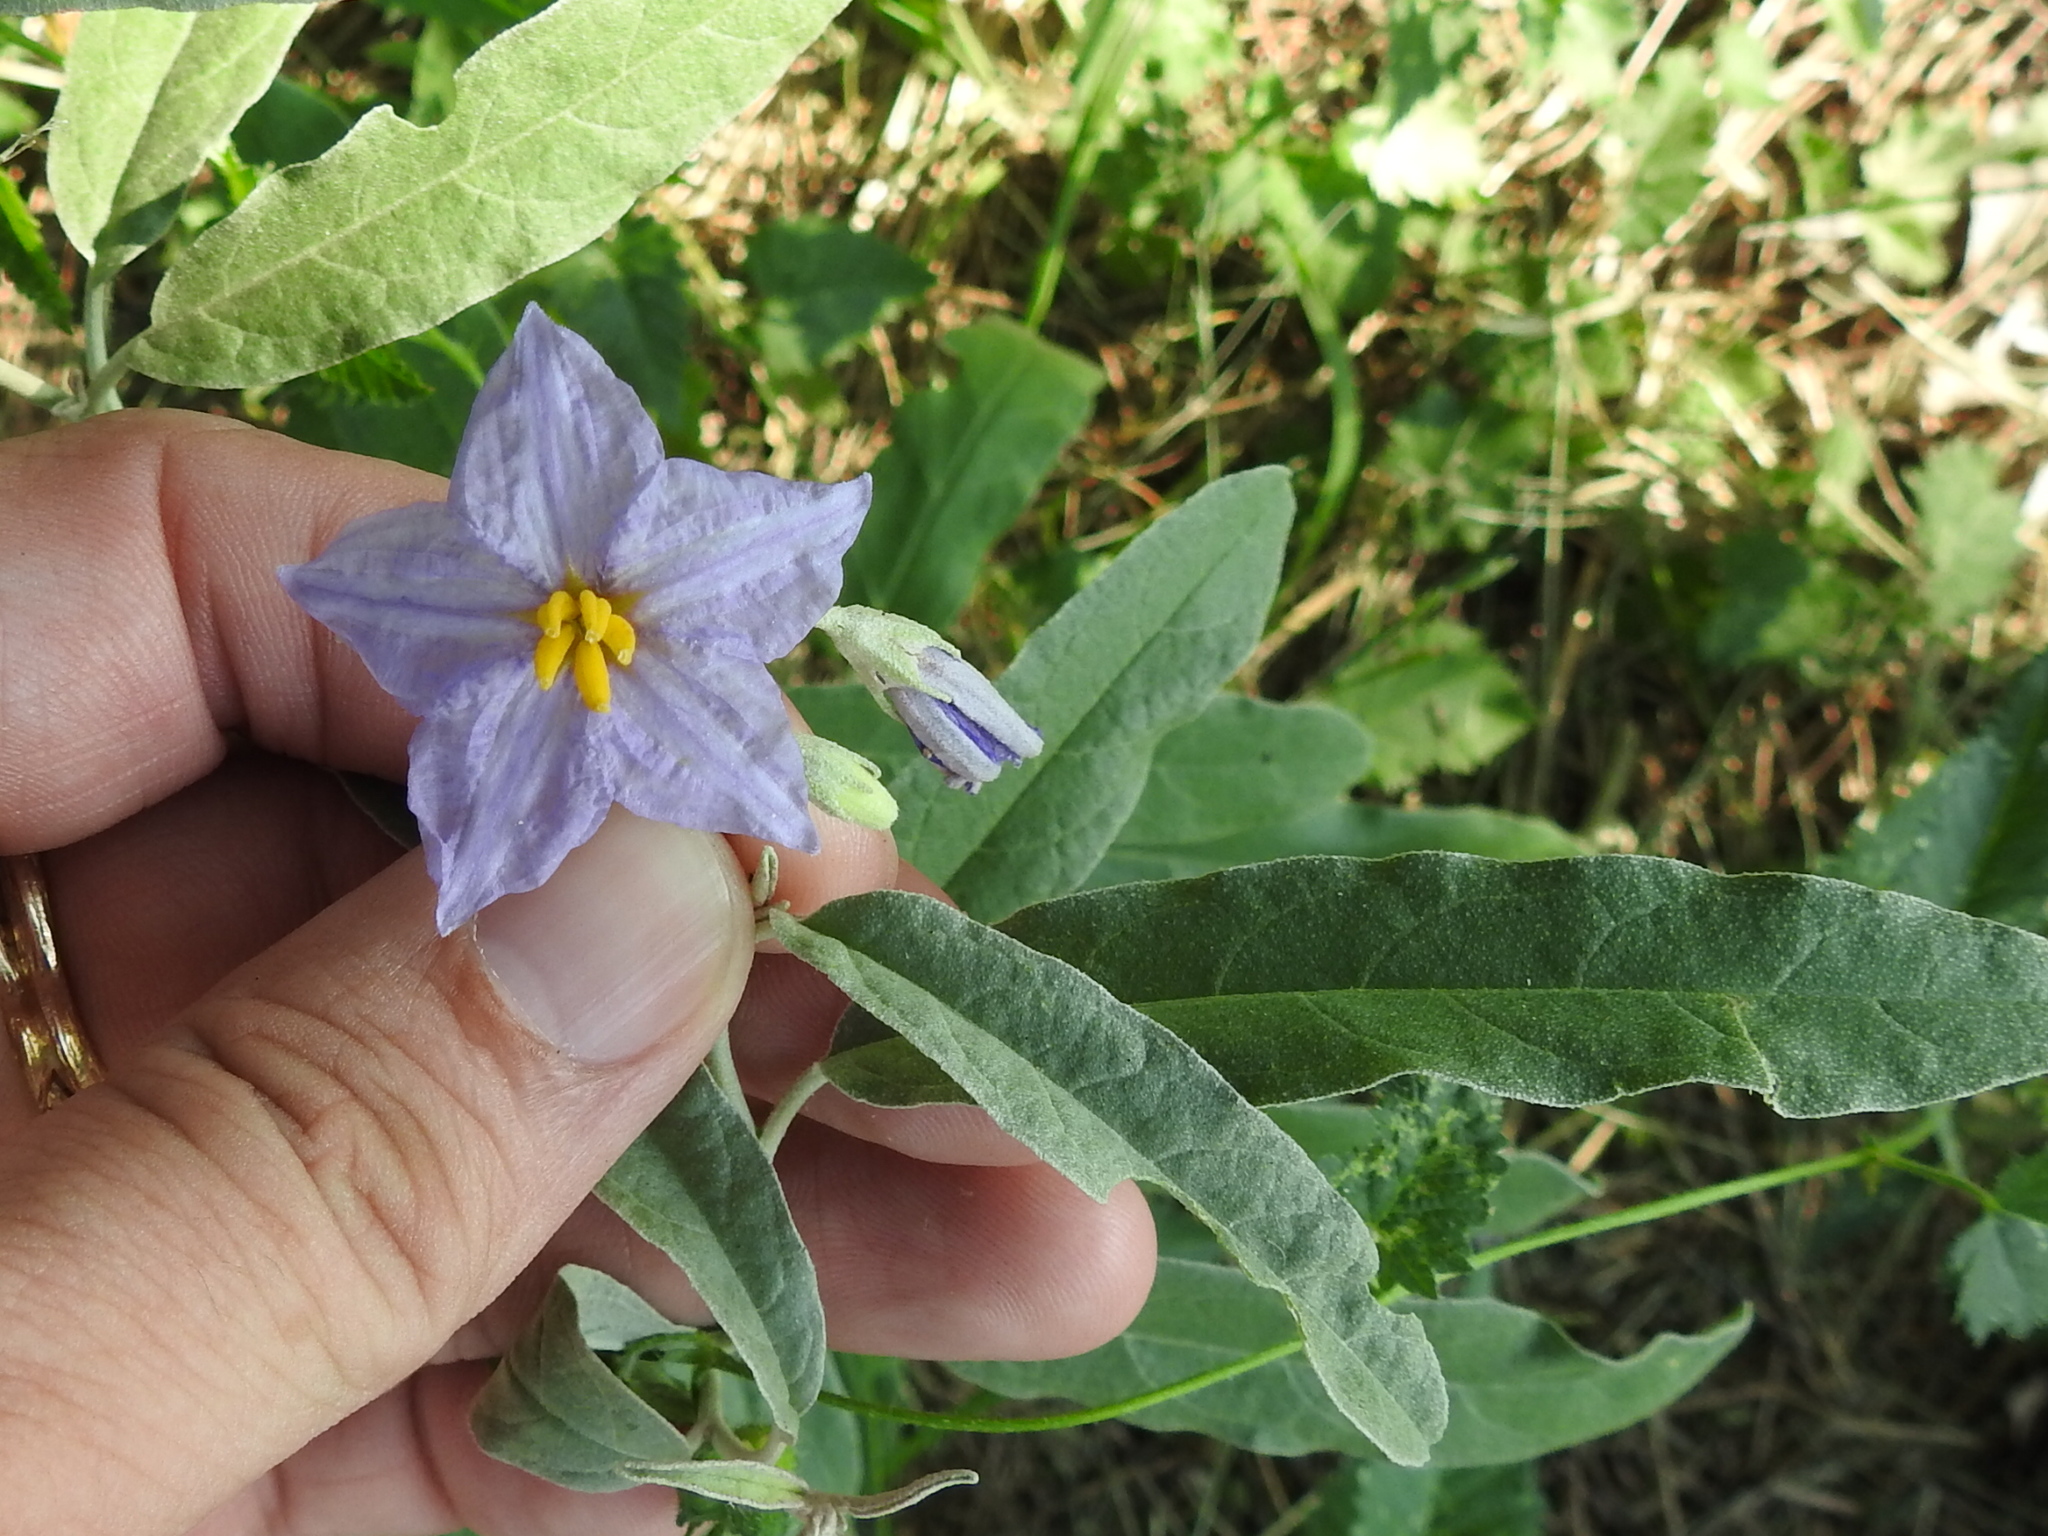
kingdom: Plantae
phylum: Tracheophyta
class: Magnoliopsida
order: Solanales
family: Solanaceae
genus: Solanum
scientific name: Solanum elaeagnifolium
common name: Silverleaf nightshade
